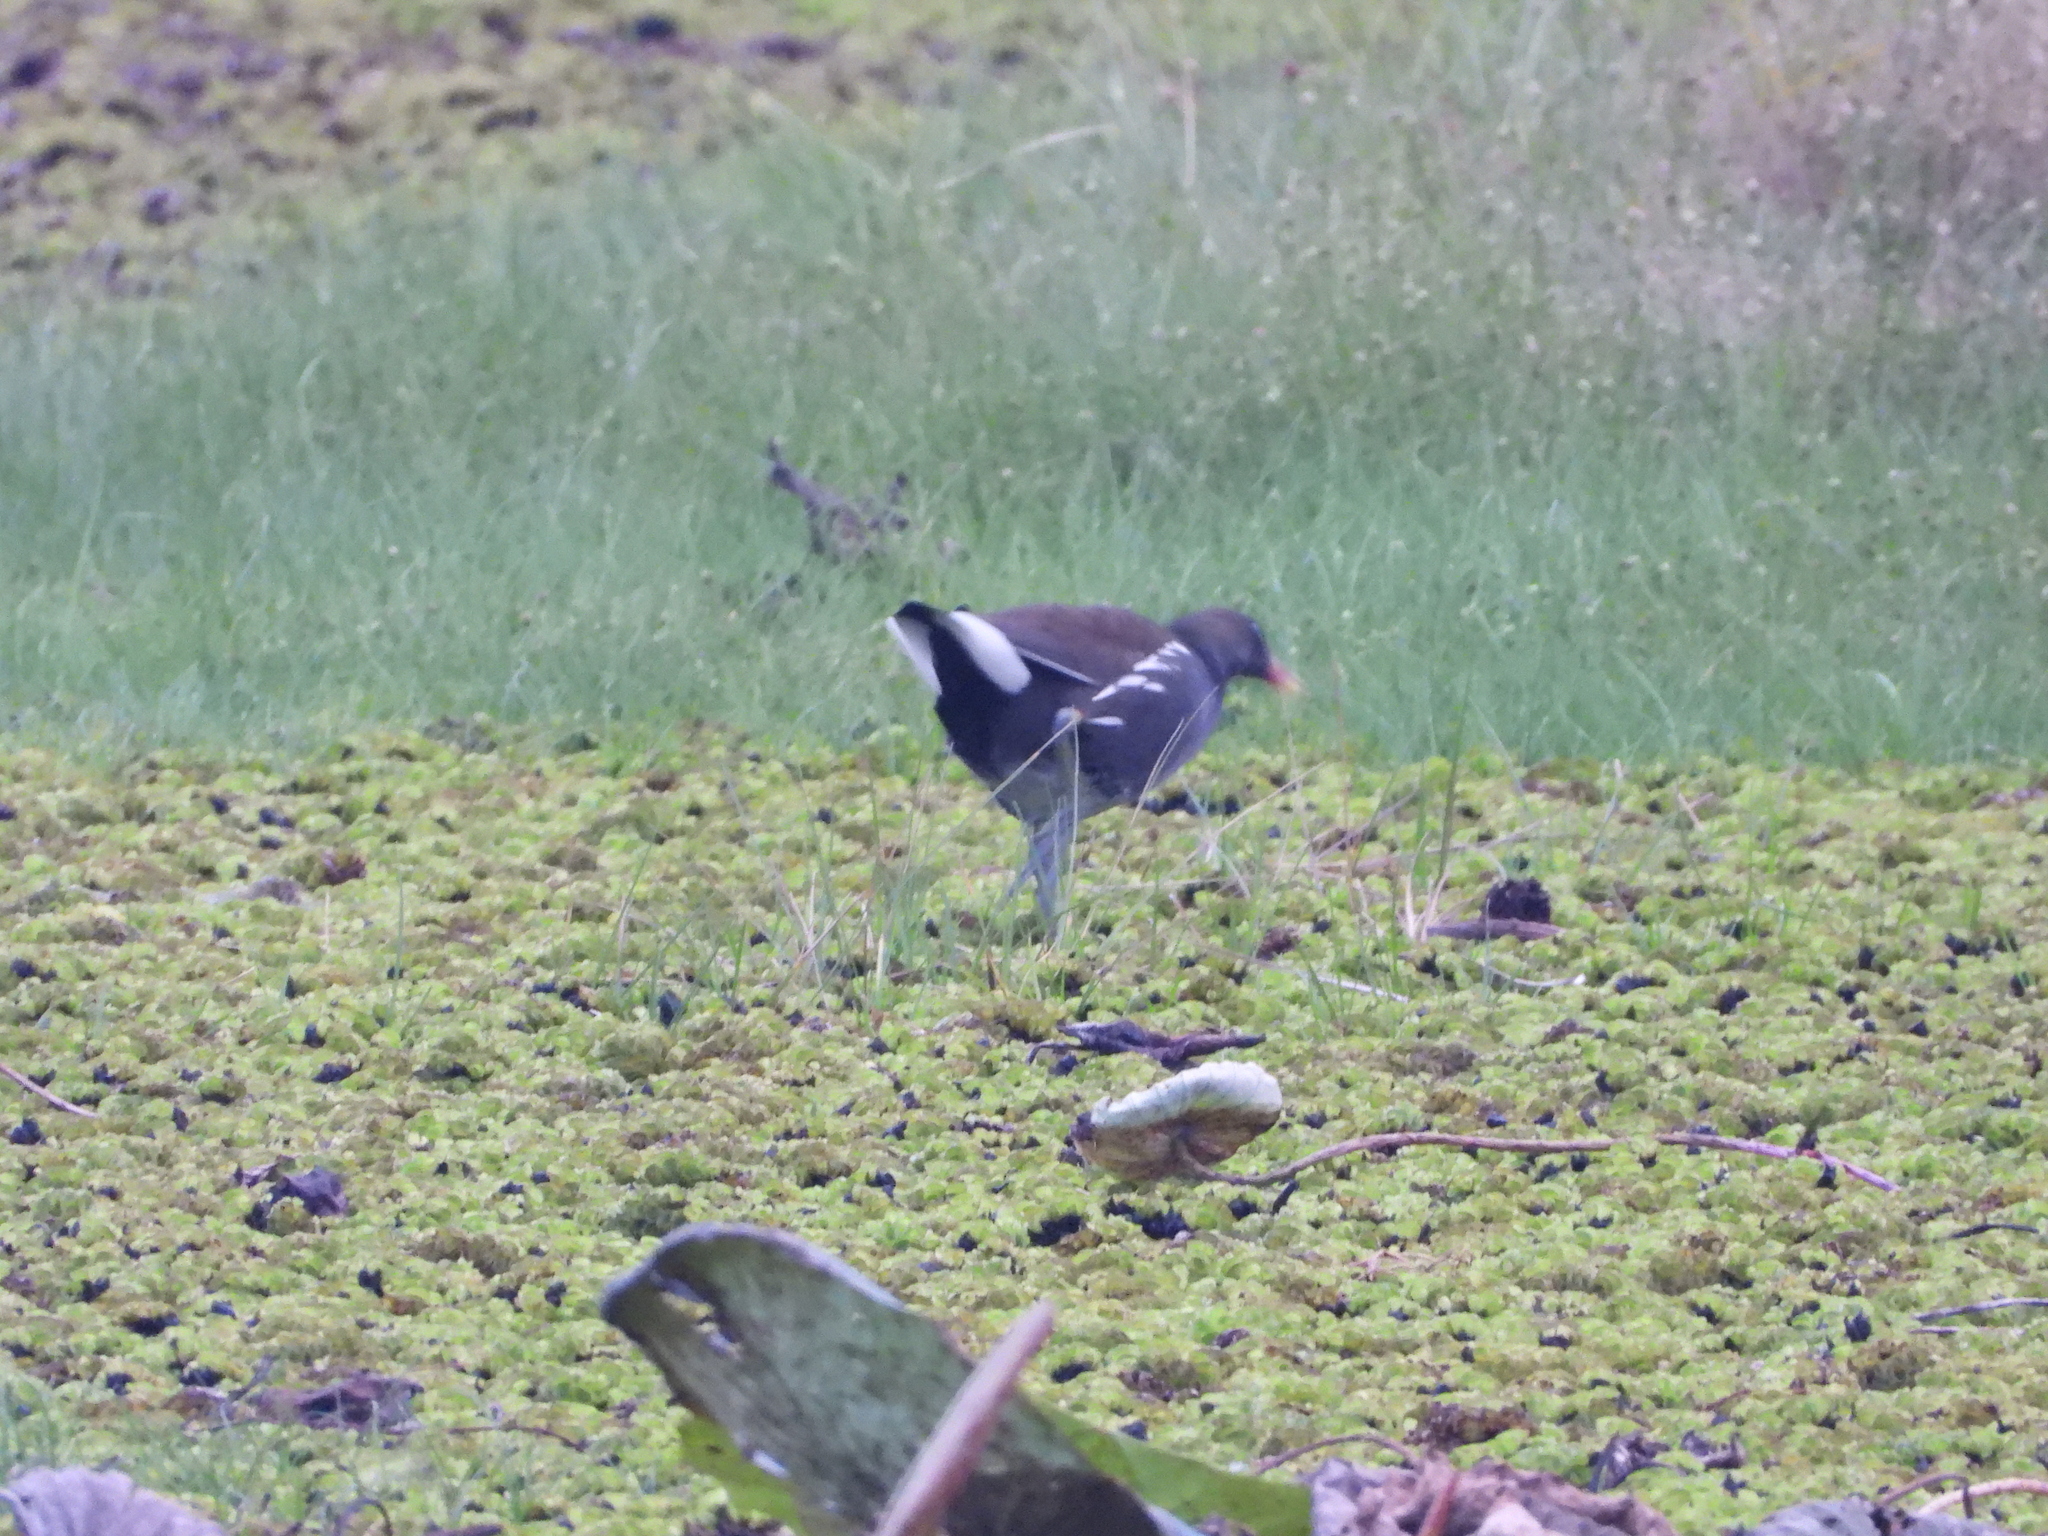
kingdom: Animalia
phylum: Chordata
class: Aves
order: Gruiformes
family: Rallidae
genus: Gallinula
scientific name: Gallinula chloropus
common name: Common moorhen
